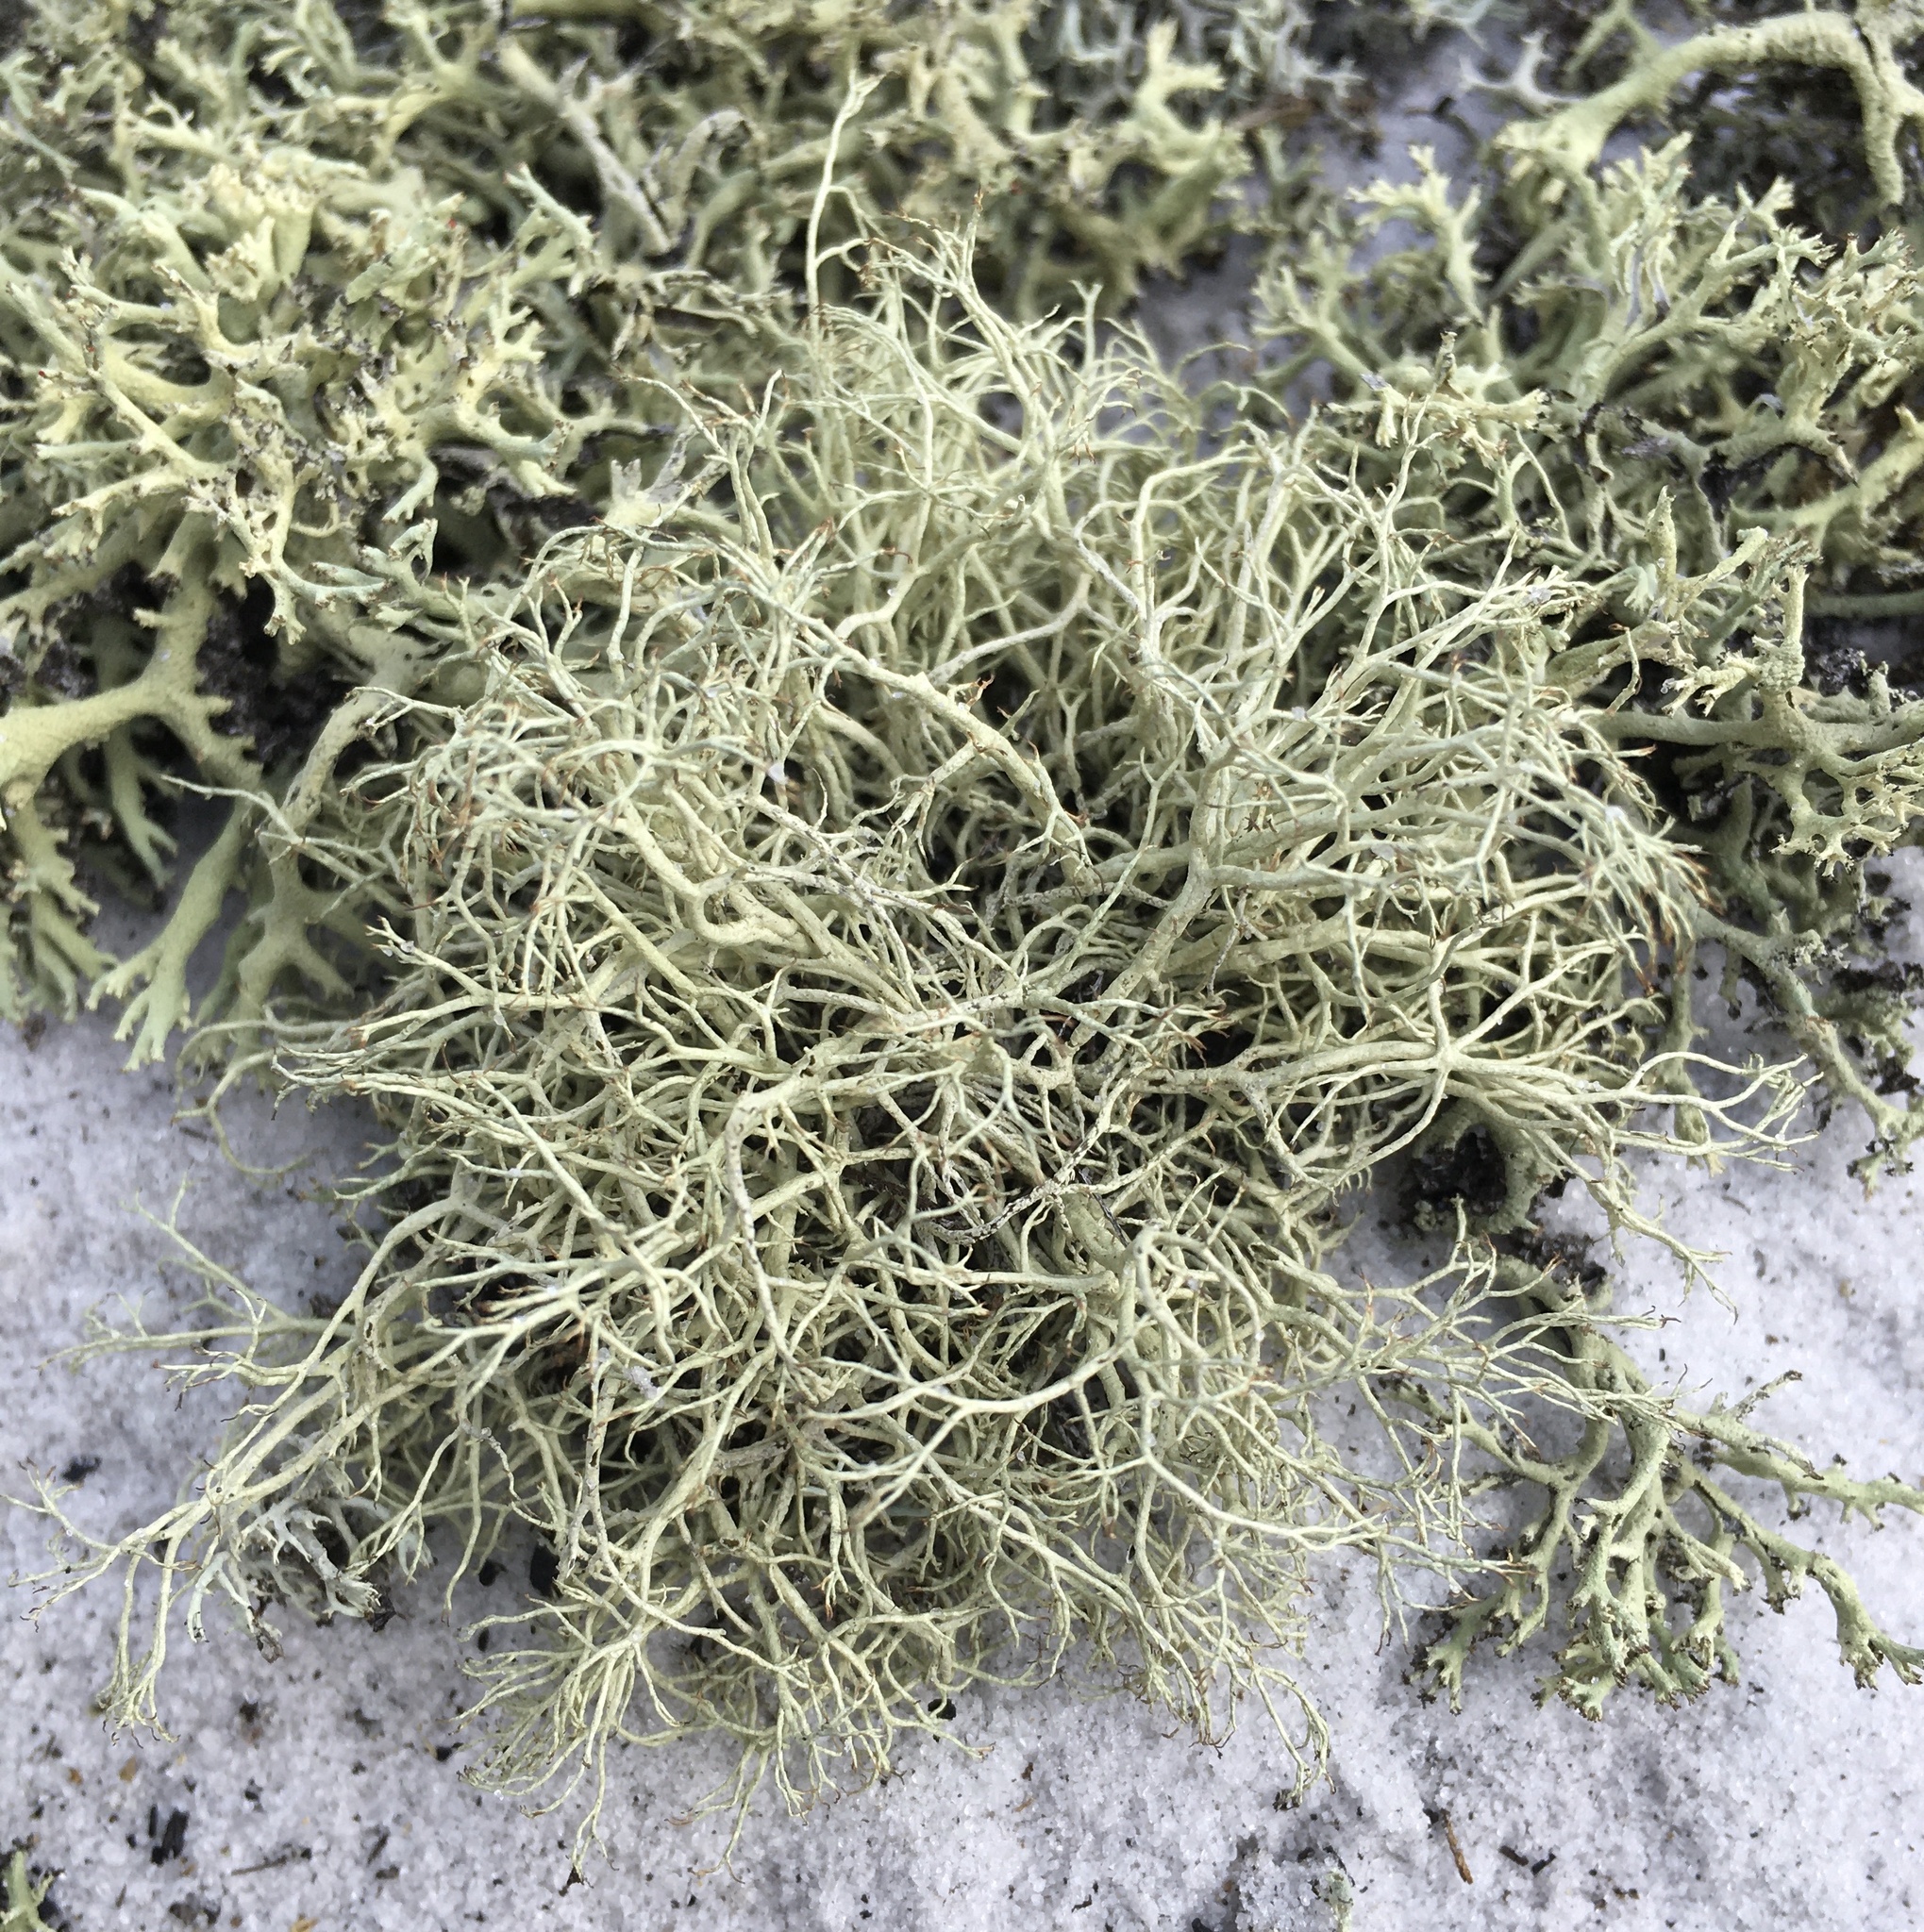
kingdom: Fungi
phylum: Ascomycota
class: Lecanoromycetes
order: Lecanorales
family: Cladoniaceae
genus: Cladonia
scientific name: Cladonia subsetacea
